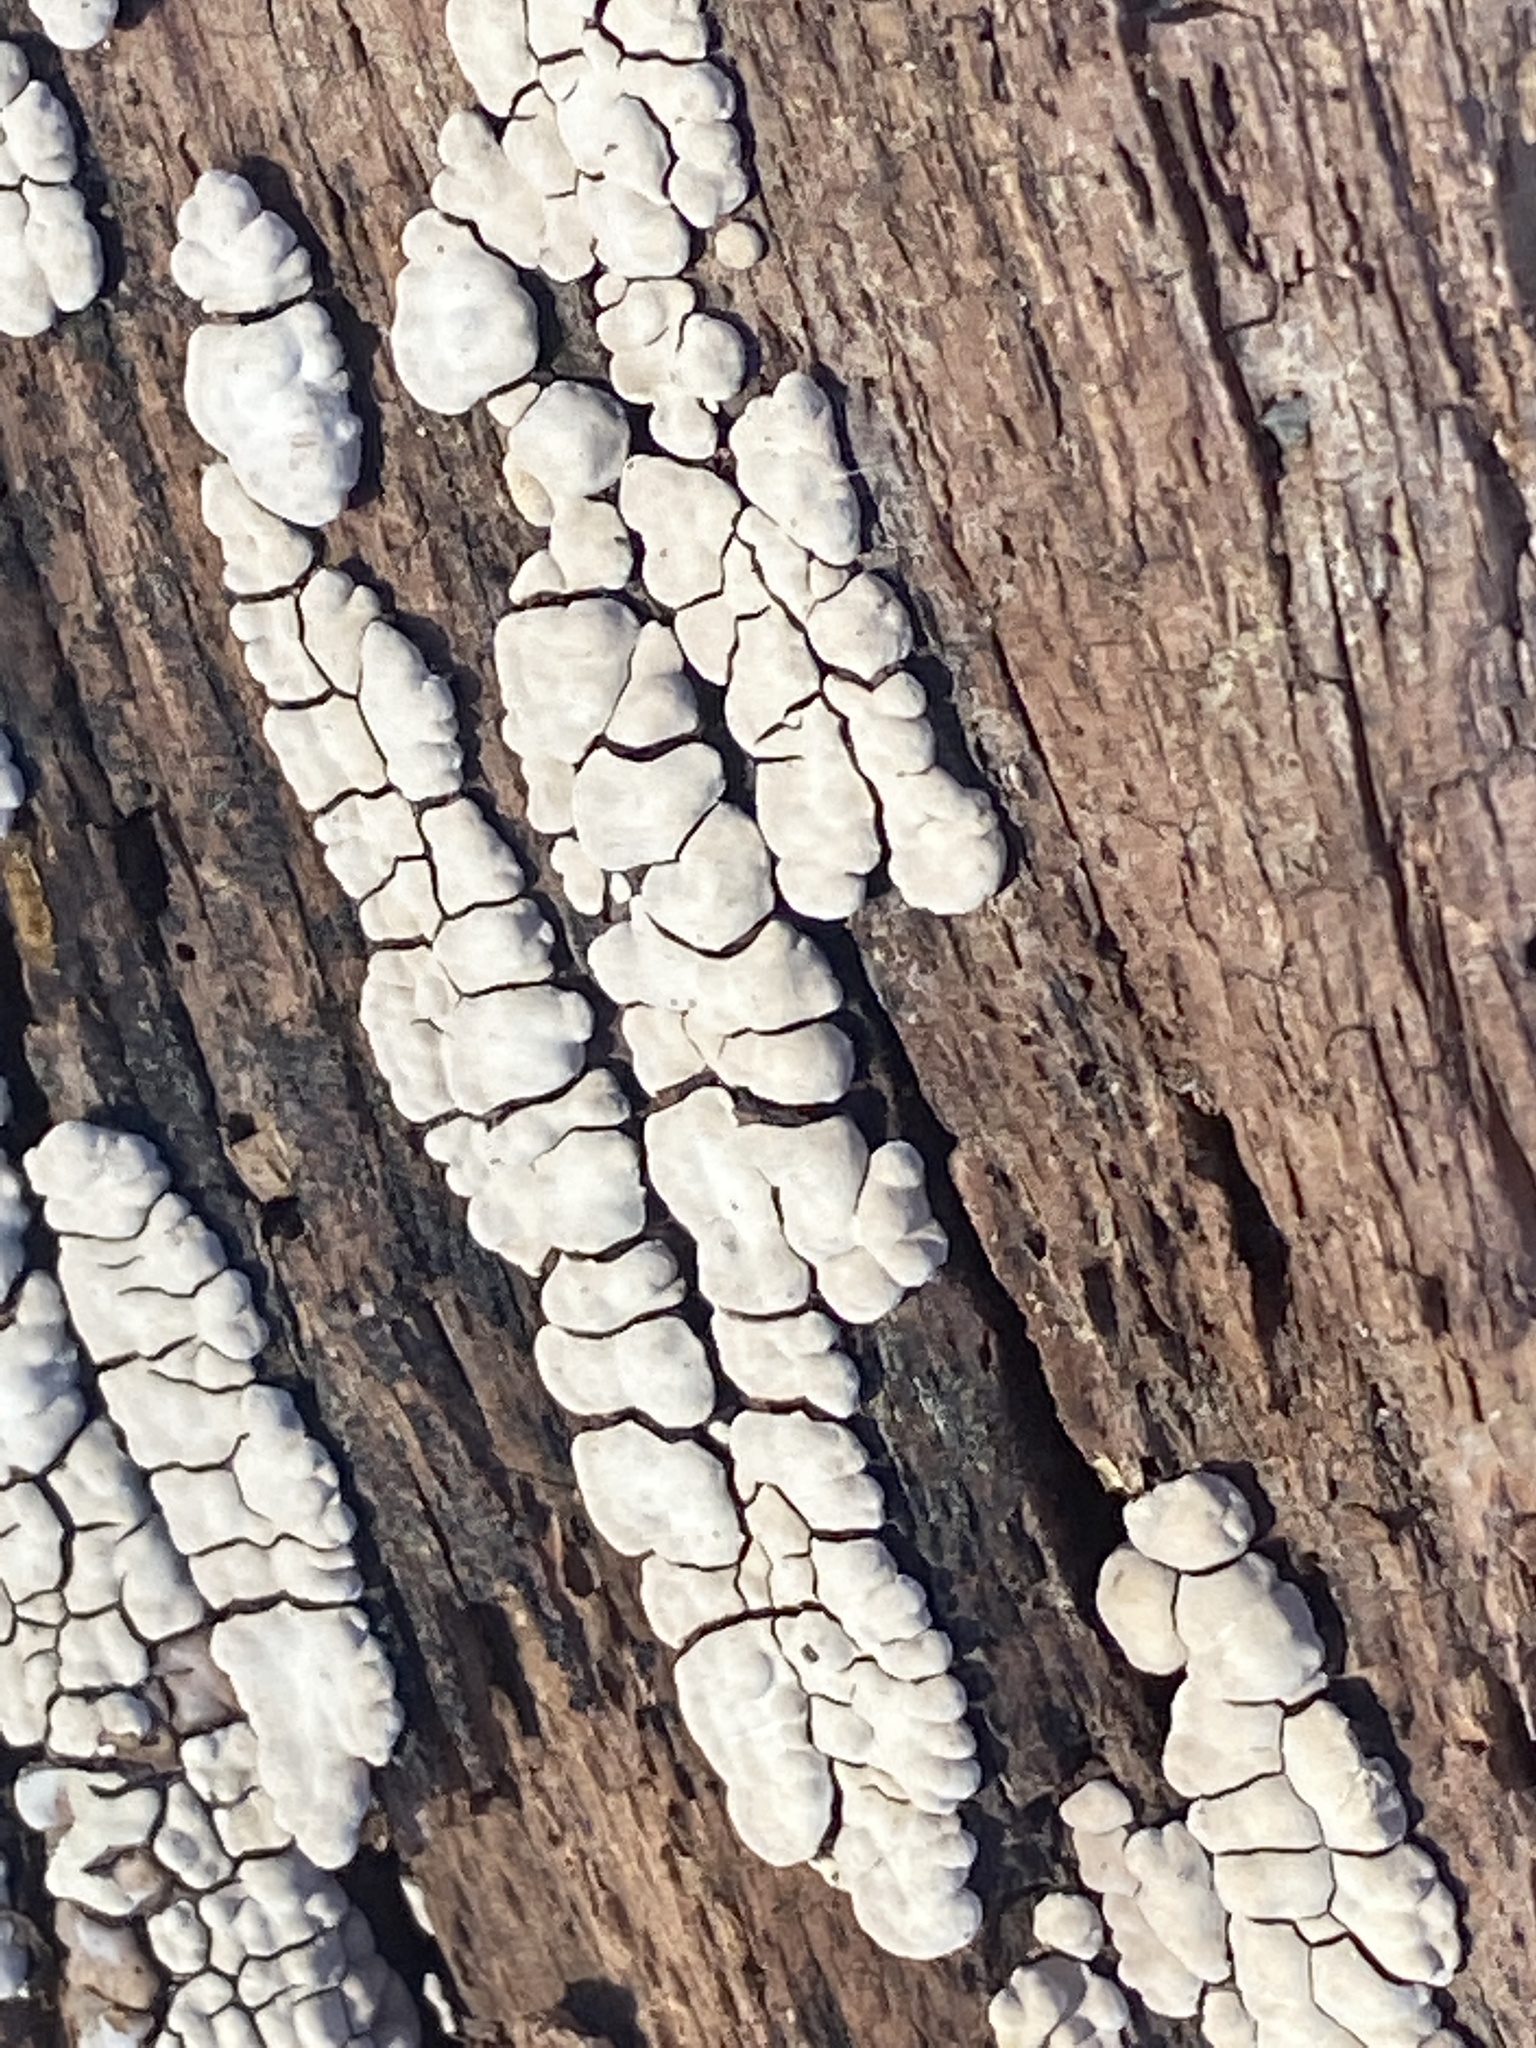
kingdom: Fungi
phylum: Basidiomycota
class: Agaricomycetes
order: Russulales
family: Stereaceae
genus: Xylobolus
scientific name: Xylobolus frustulatus
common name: Ceramic parchment
